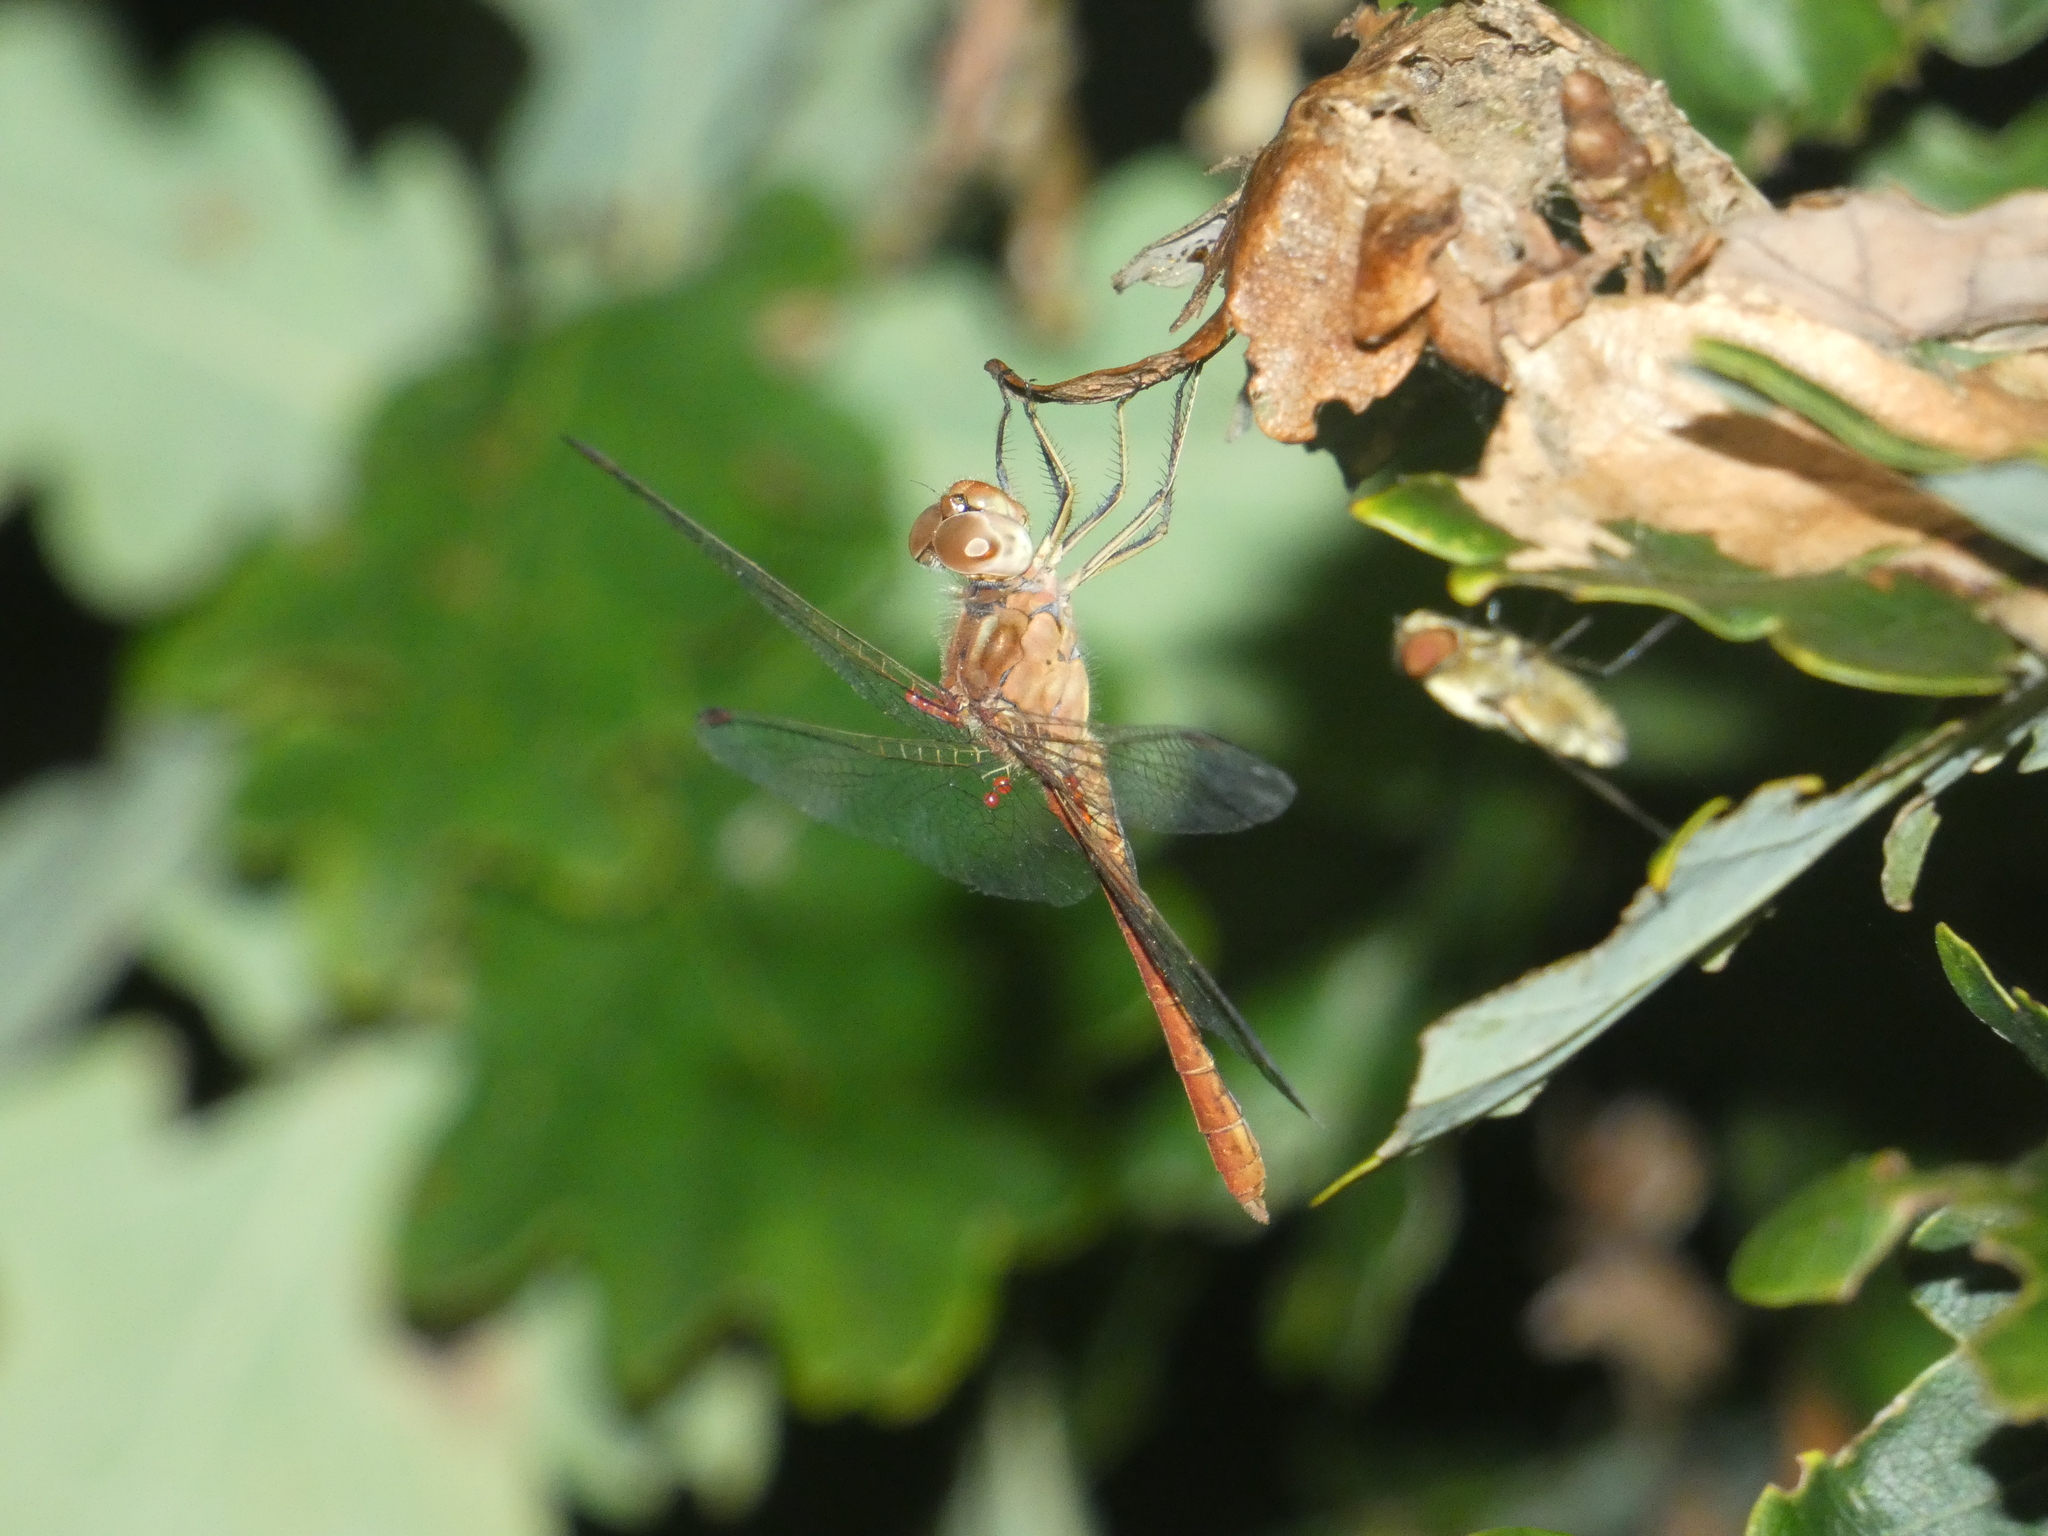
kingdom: Animalia
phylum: Arthropoda
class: Insecta
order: Odonata
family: Libellulidae
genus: Sympetrum
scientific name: Sympetrum meridionale
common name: Southern darter
